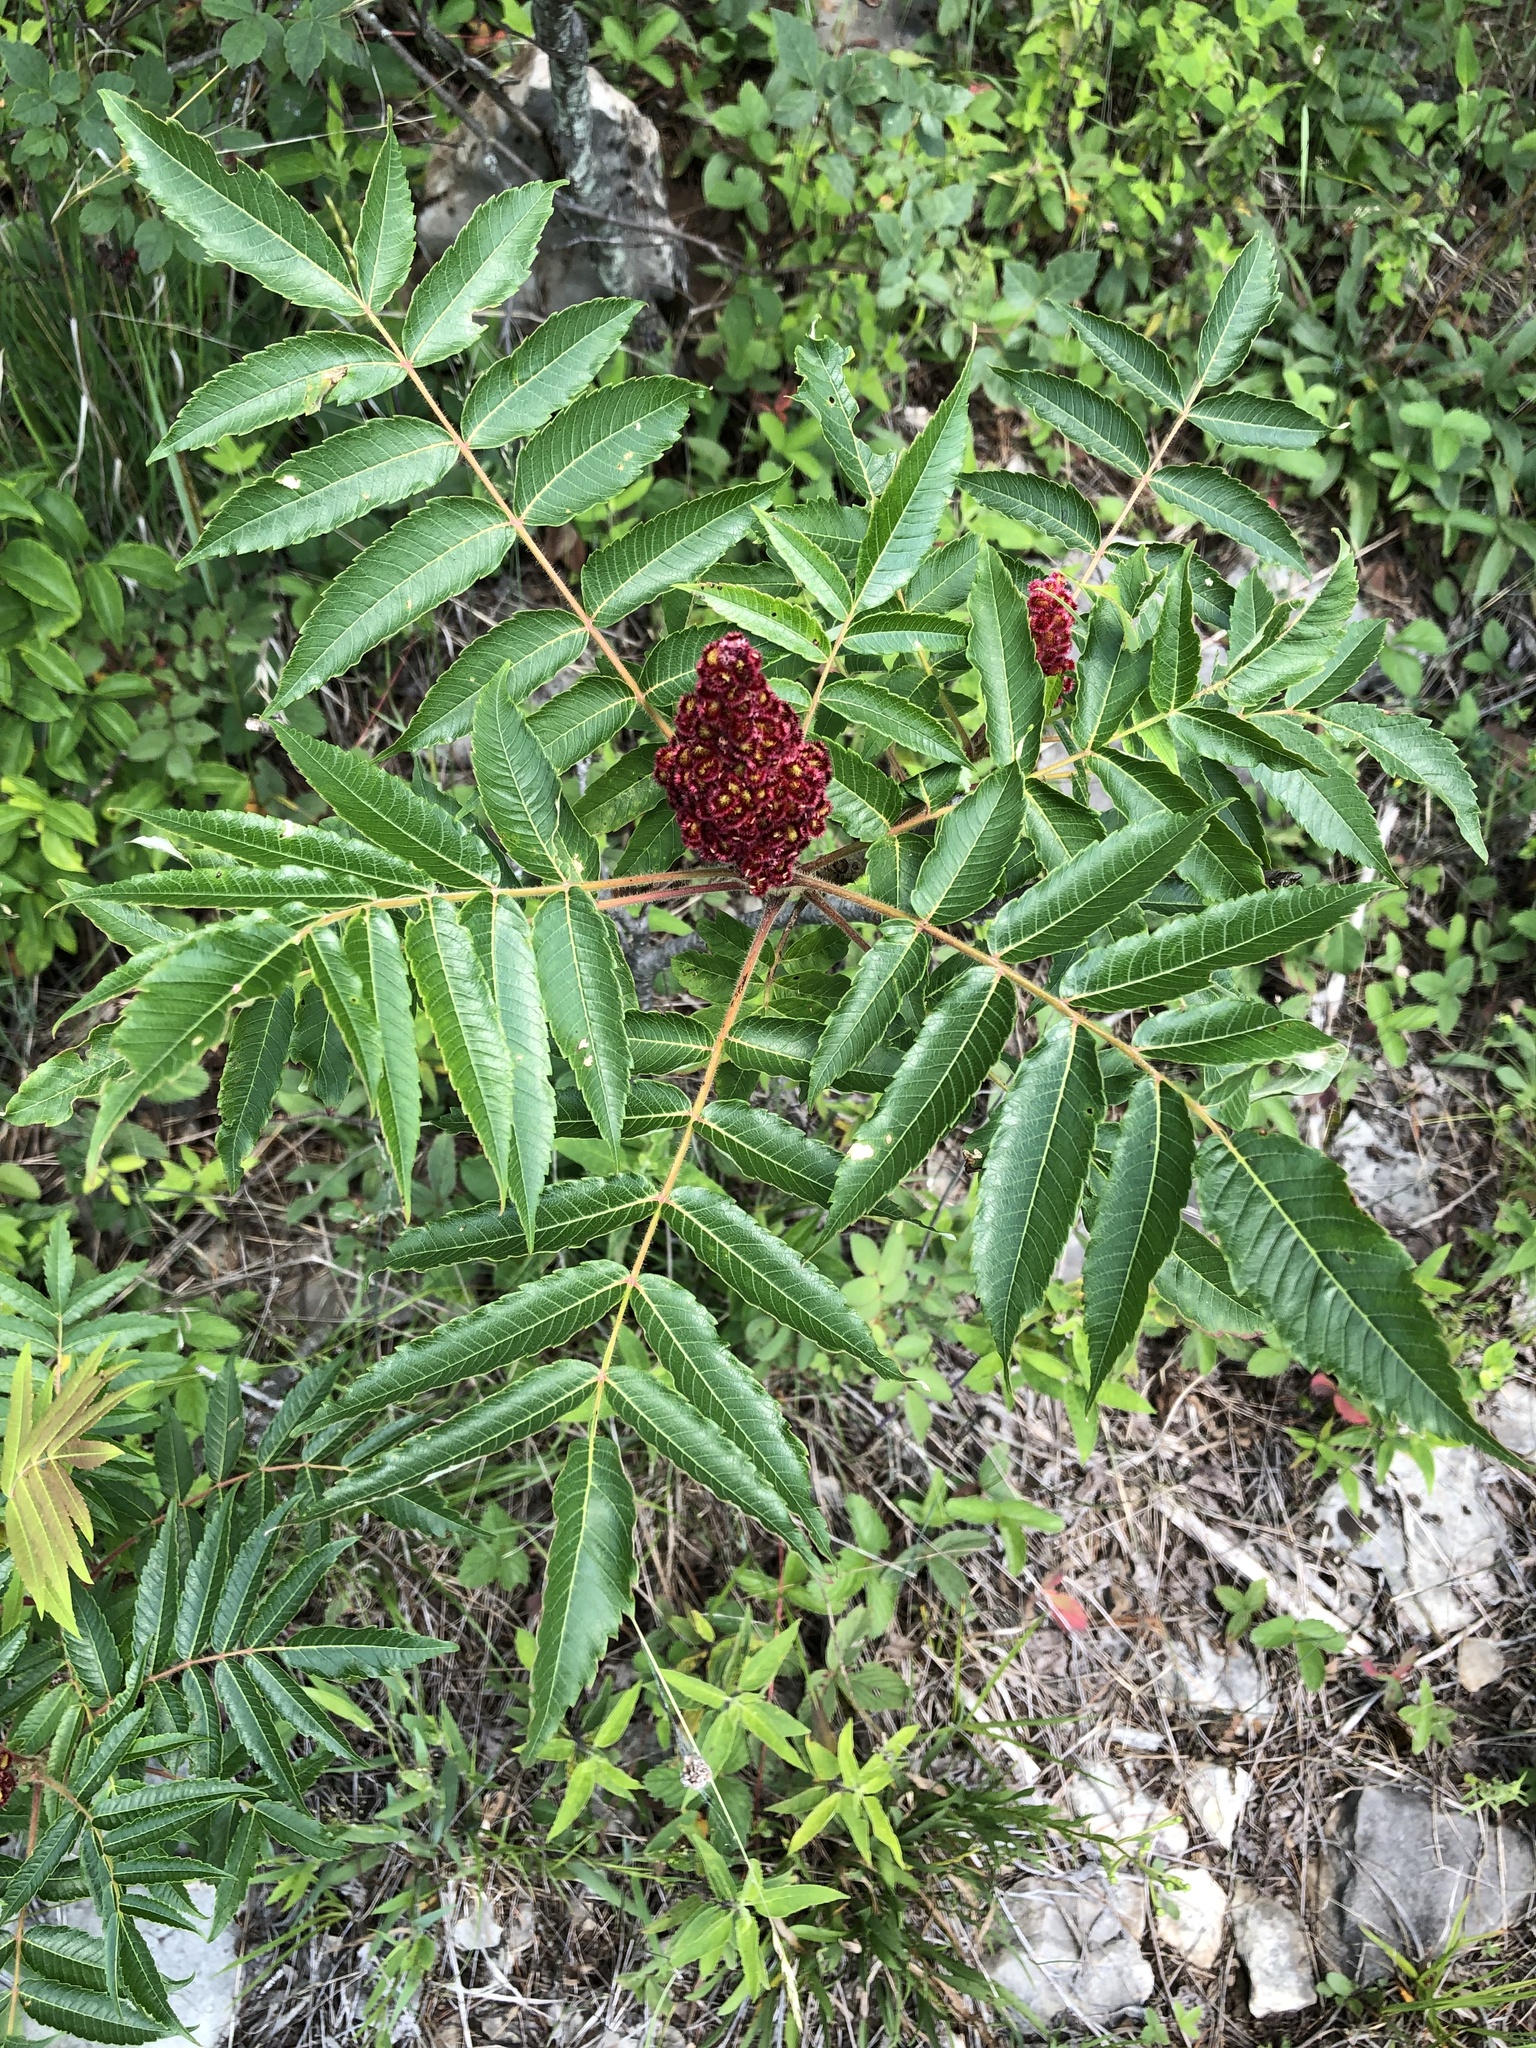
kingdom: Plantae
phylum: Tracheophyta
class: Magnoliopsida
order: Sapindales
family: Anacardiaceae
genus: Rhus
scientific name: Rhus typhina
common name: Staghorn sumac
